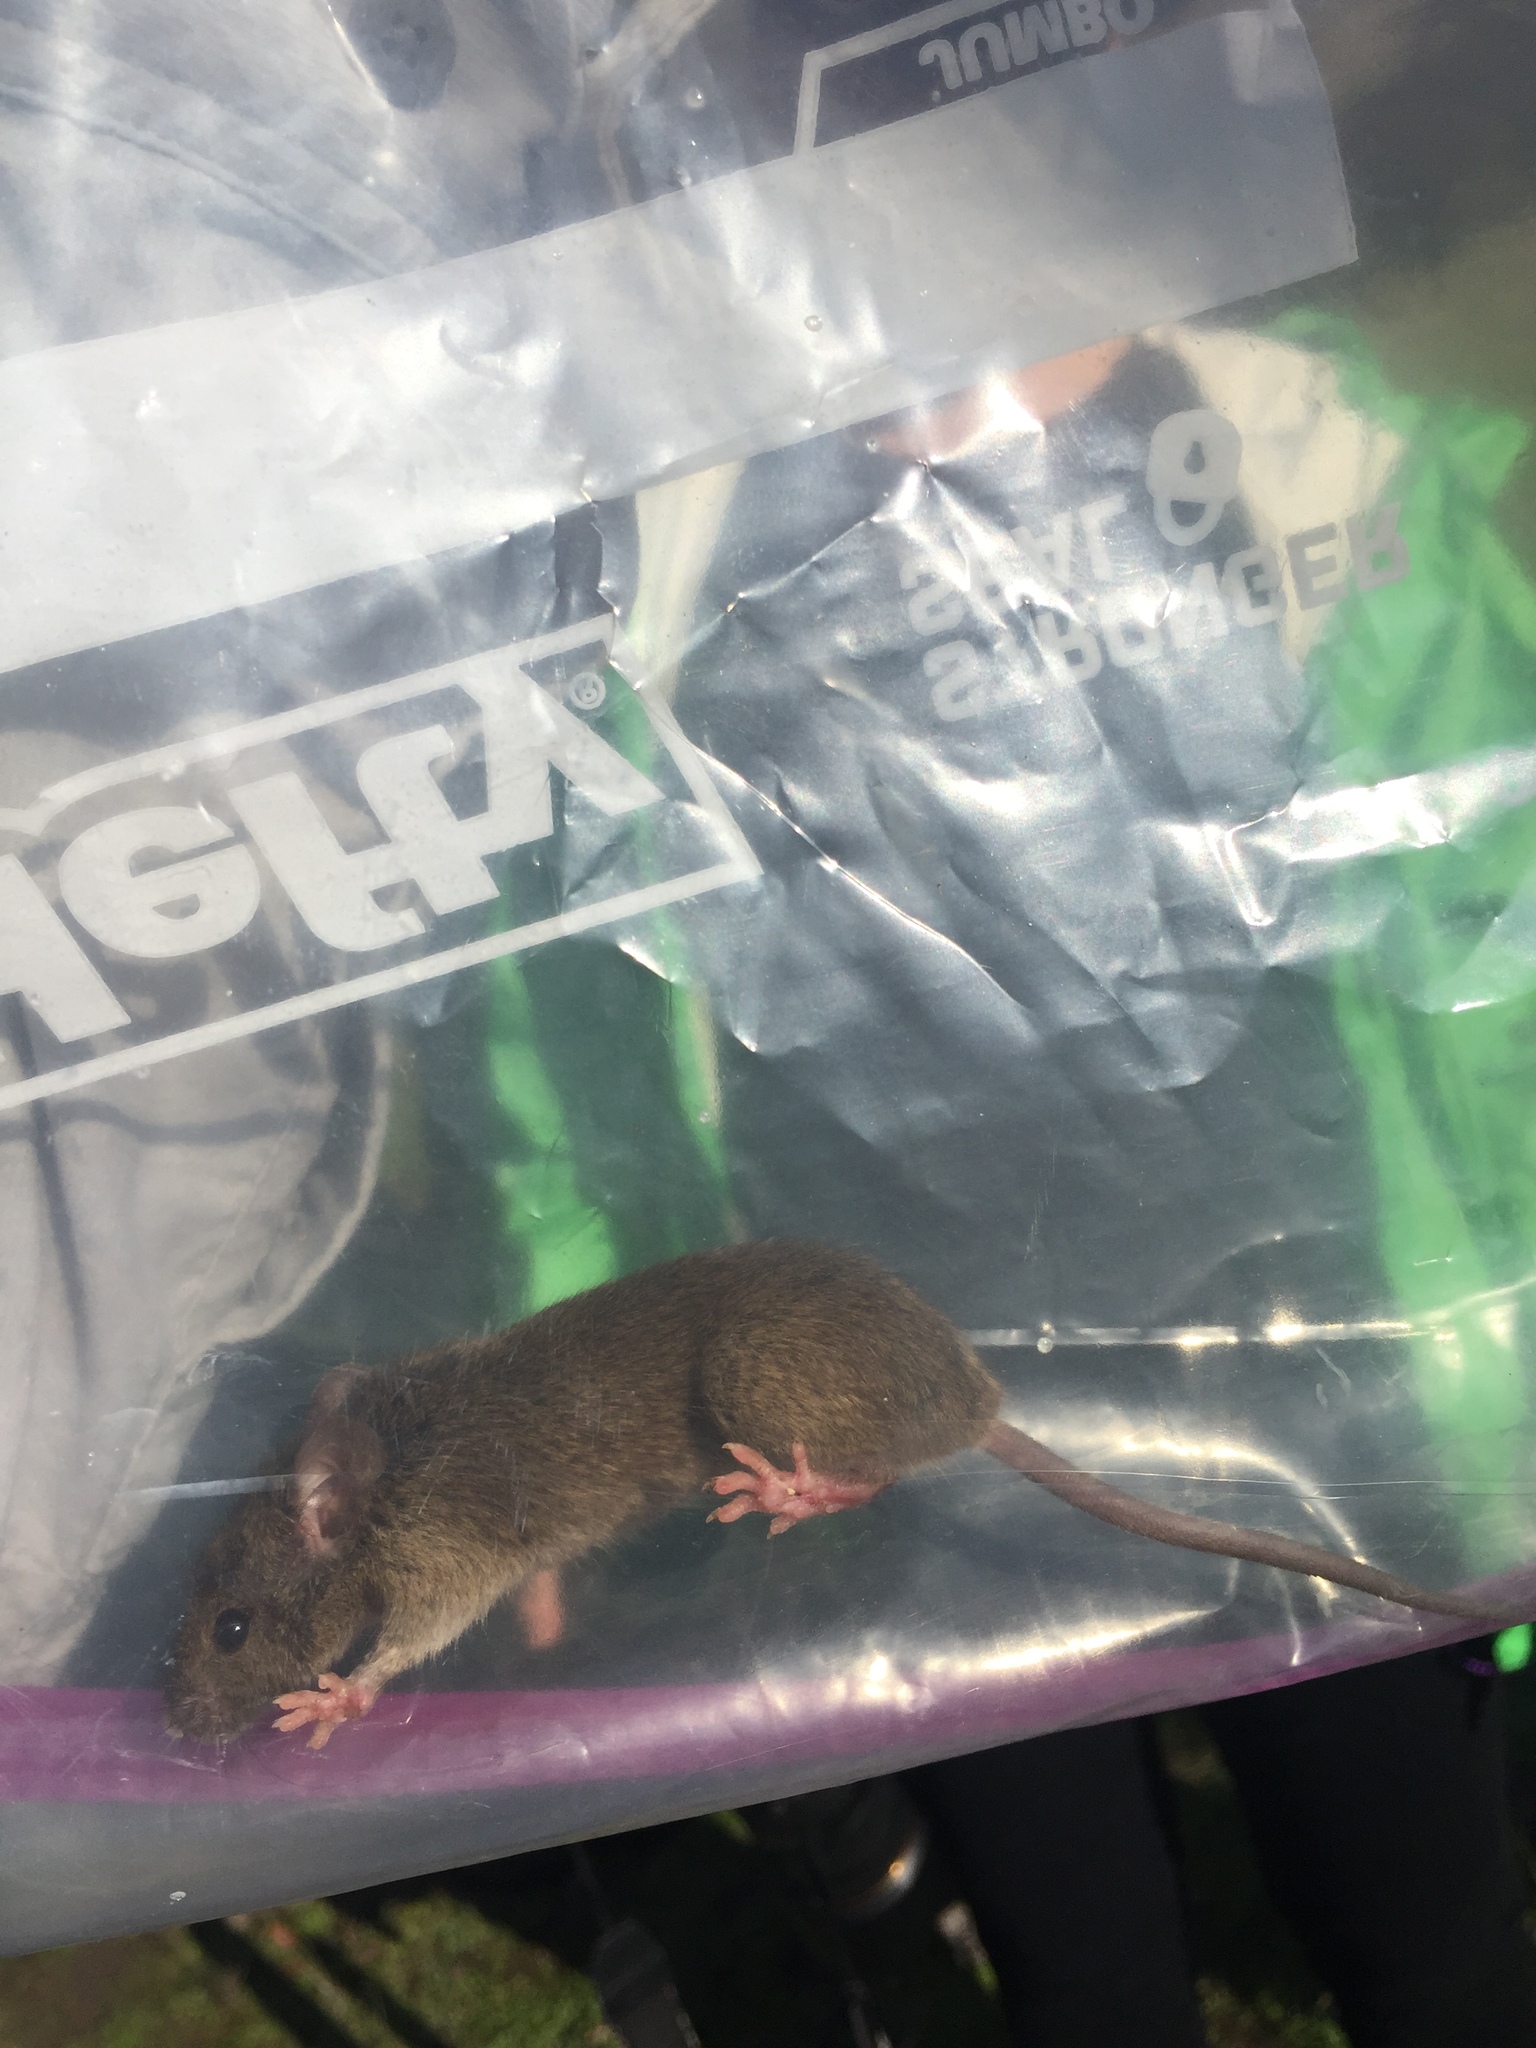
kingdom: Animalia
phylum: Chordata
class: Mammalia
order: Rodentia
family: Muridae
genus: Rattus
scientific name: Rattus rattus
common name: Black rat
